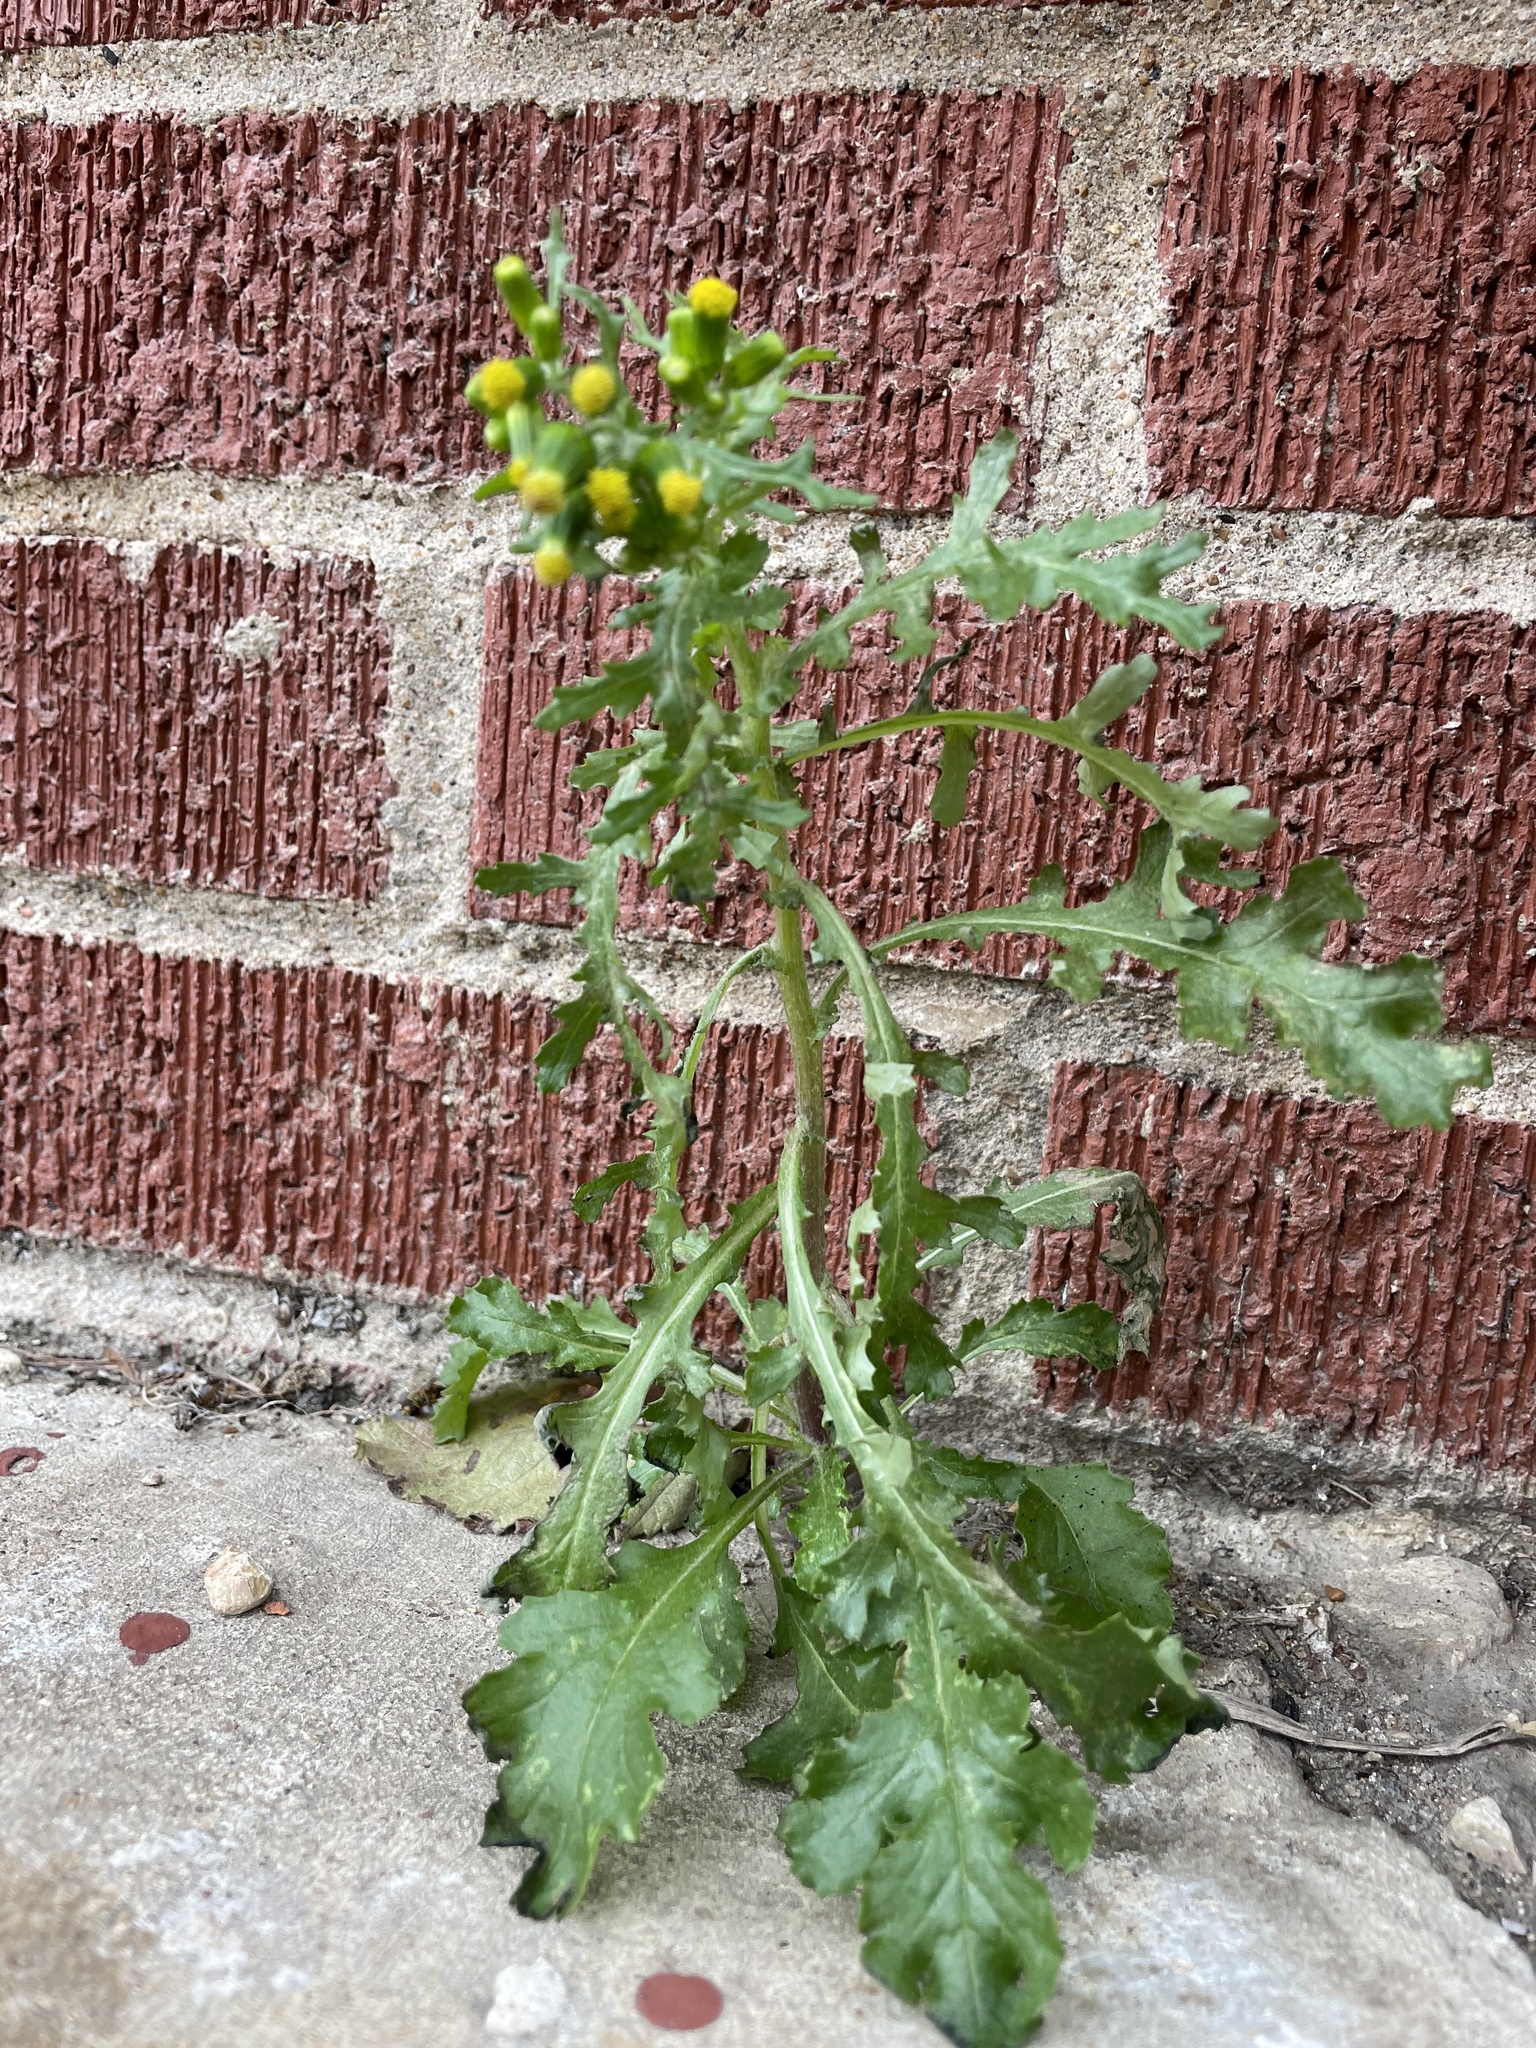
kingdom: Plantae
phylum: Tracheophyta
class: Magnoliopsida
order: Asterales
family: Asteraceae
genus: Senecio
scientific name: Senecio vulgaris
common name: Old-man-in-the-spring
